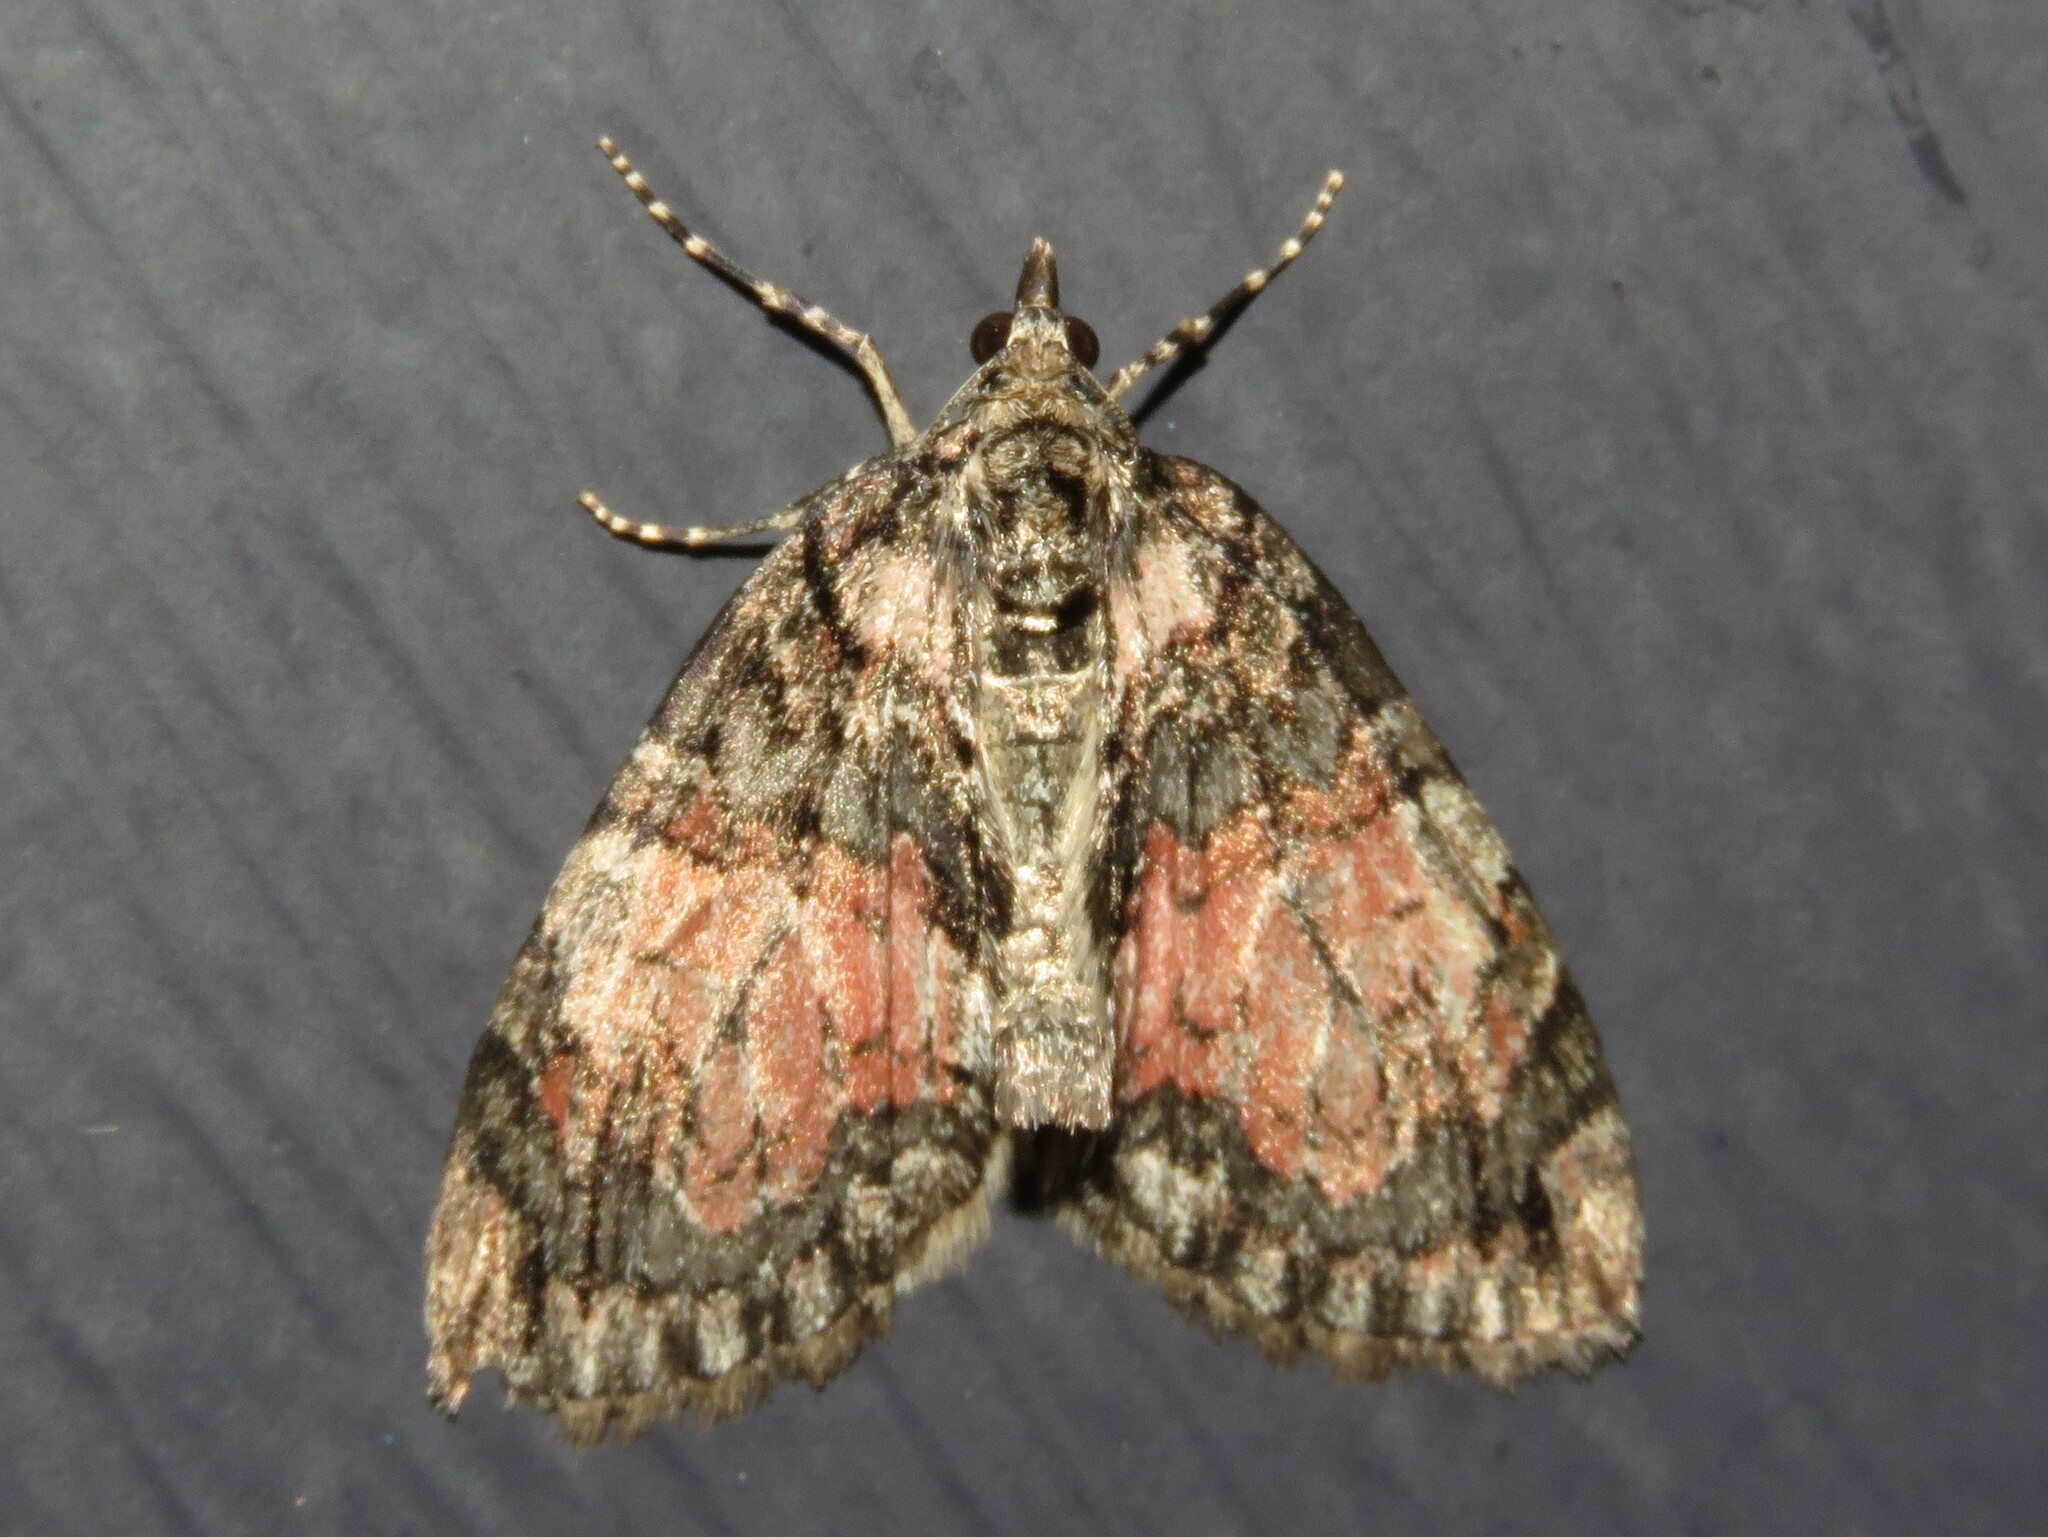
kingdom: Animalia
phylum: Arthropoda
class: Insecta
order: Lepidoptera
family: Geometridae
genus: Hydriomena
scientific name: Hydriomena perfracta
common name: Shattered hydriomena moth
